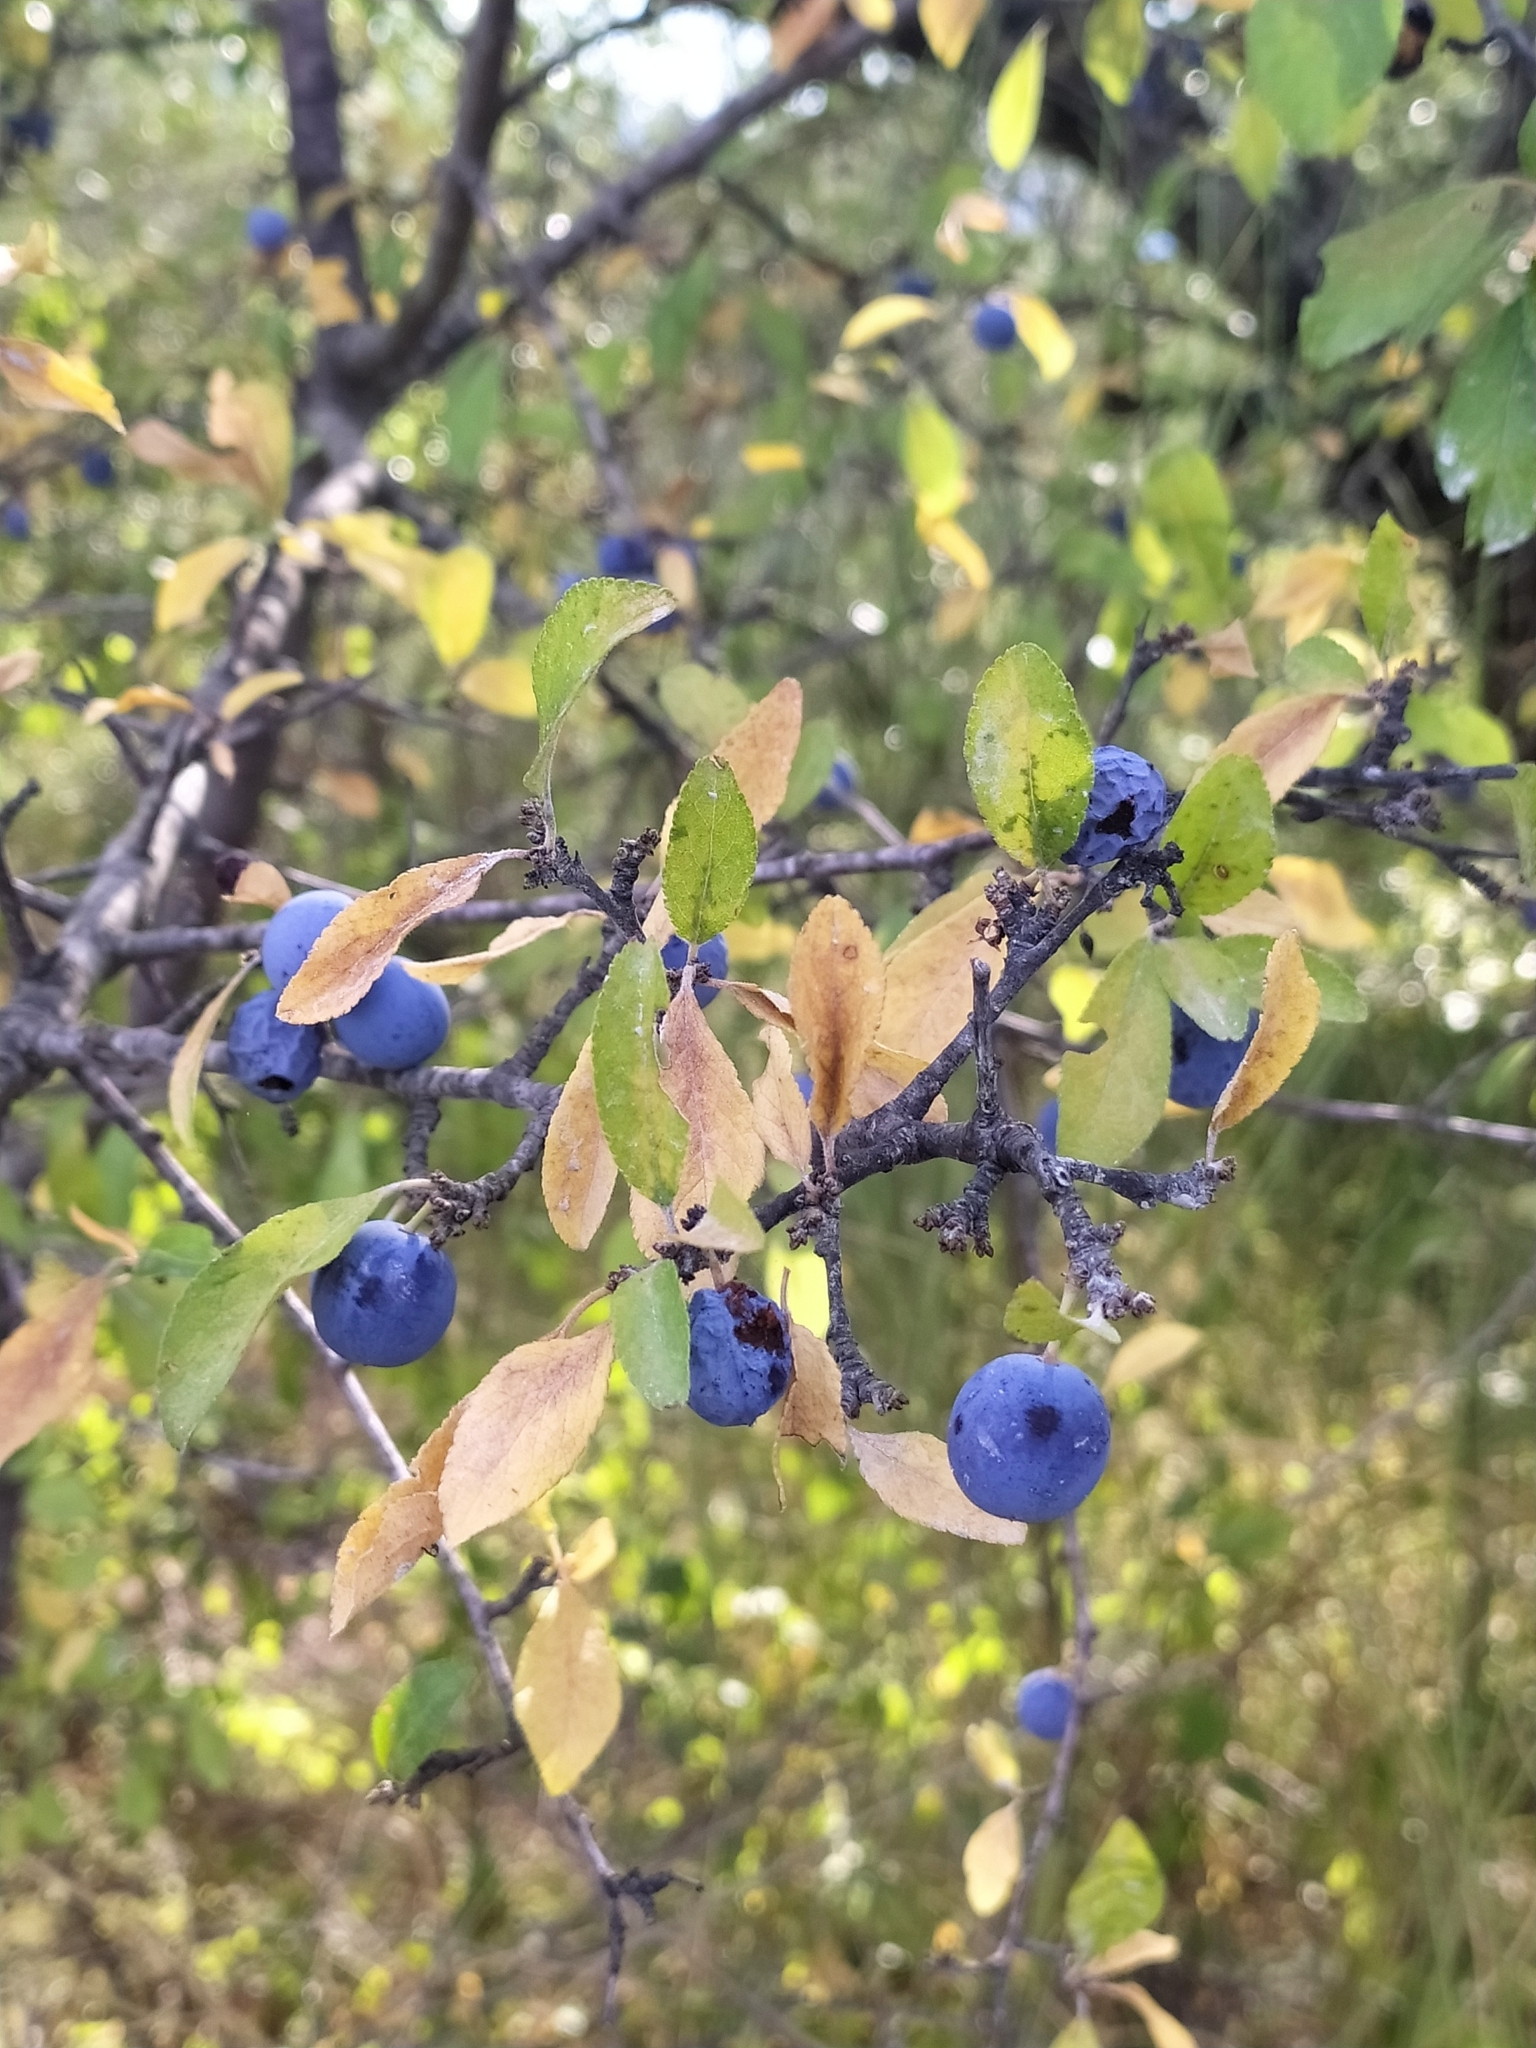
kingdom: Plantae
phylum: Tracheophyta
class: Magnoliopsida
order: Rosales
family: Rosaceae
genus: Prunus
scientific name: Prunus spinosa
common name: Blackthorn
